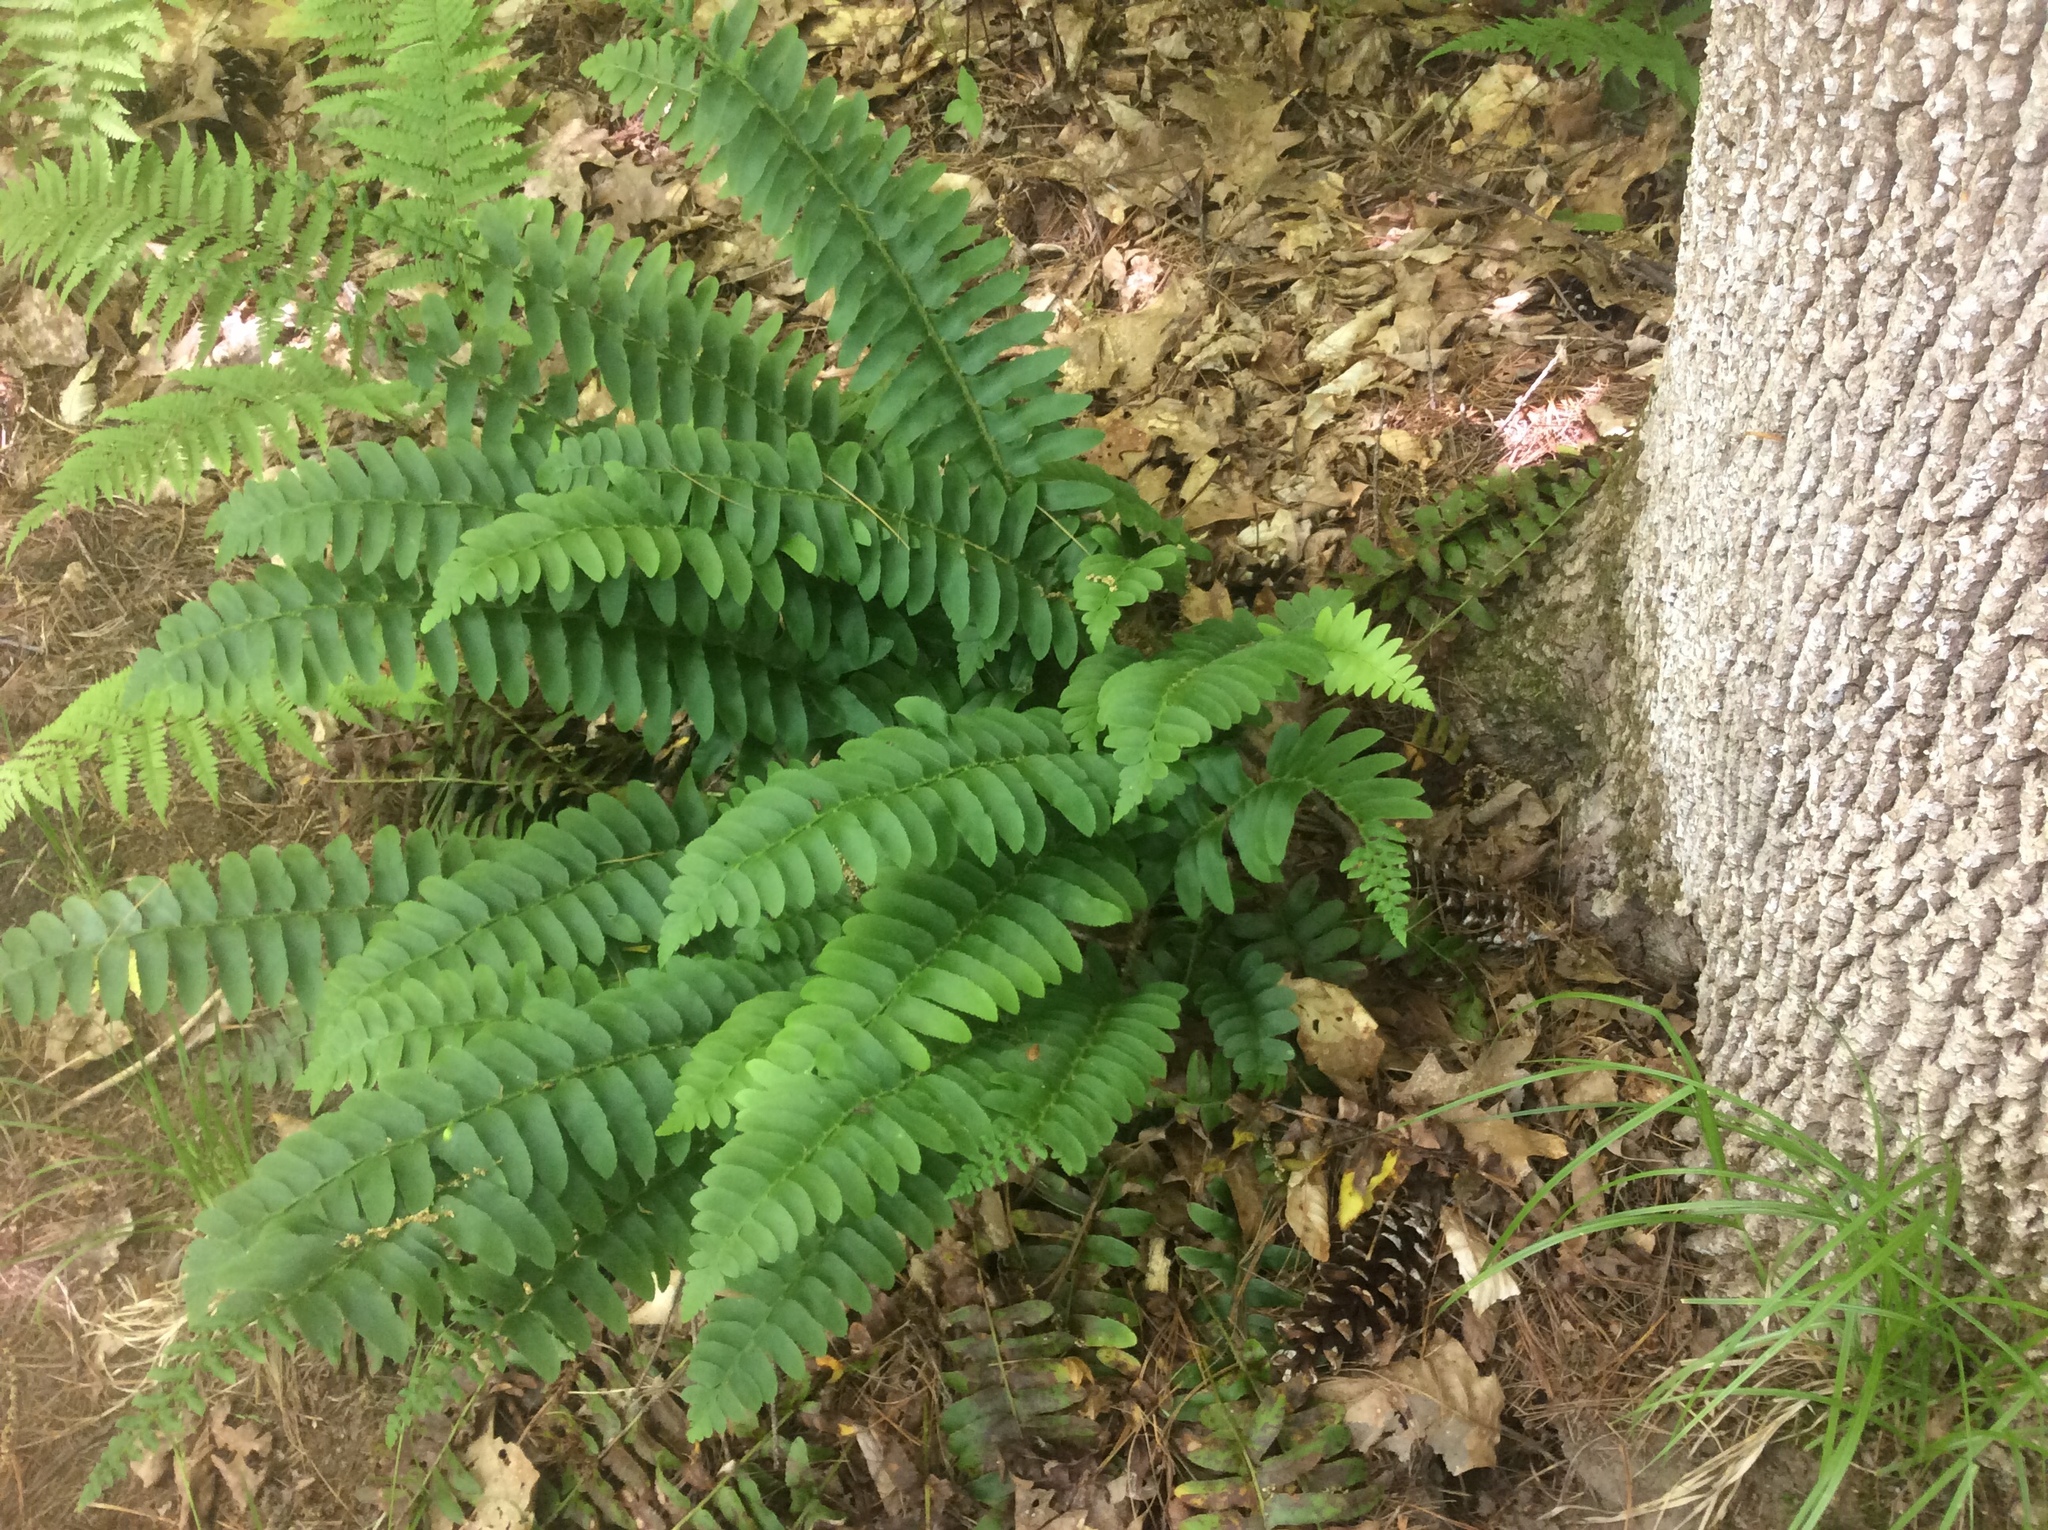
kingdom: Plantae
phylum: Tracheophyta
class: Polypodiopsida
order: Polypodiales
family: Dryopteridaceae
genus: Polystichum
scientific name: Polystichum acrostichoides
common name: Christmas fern
